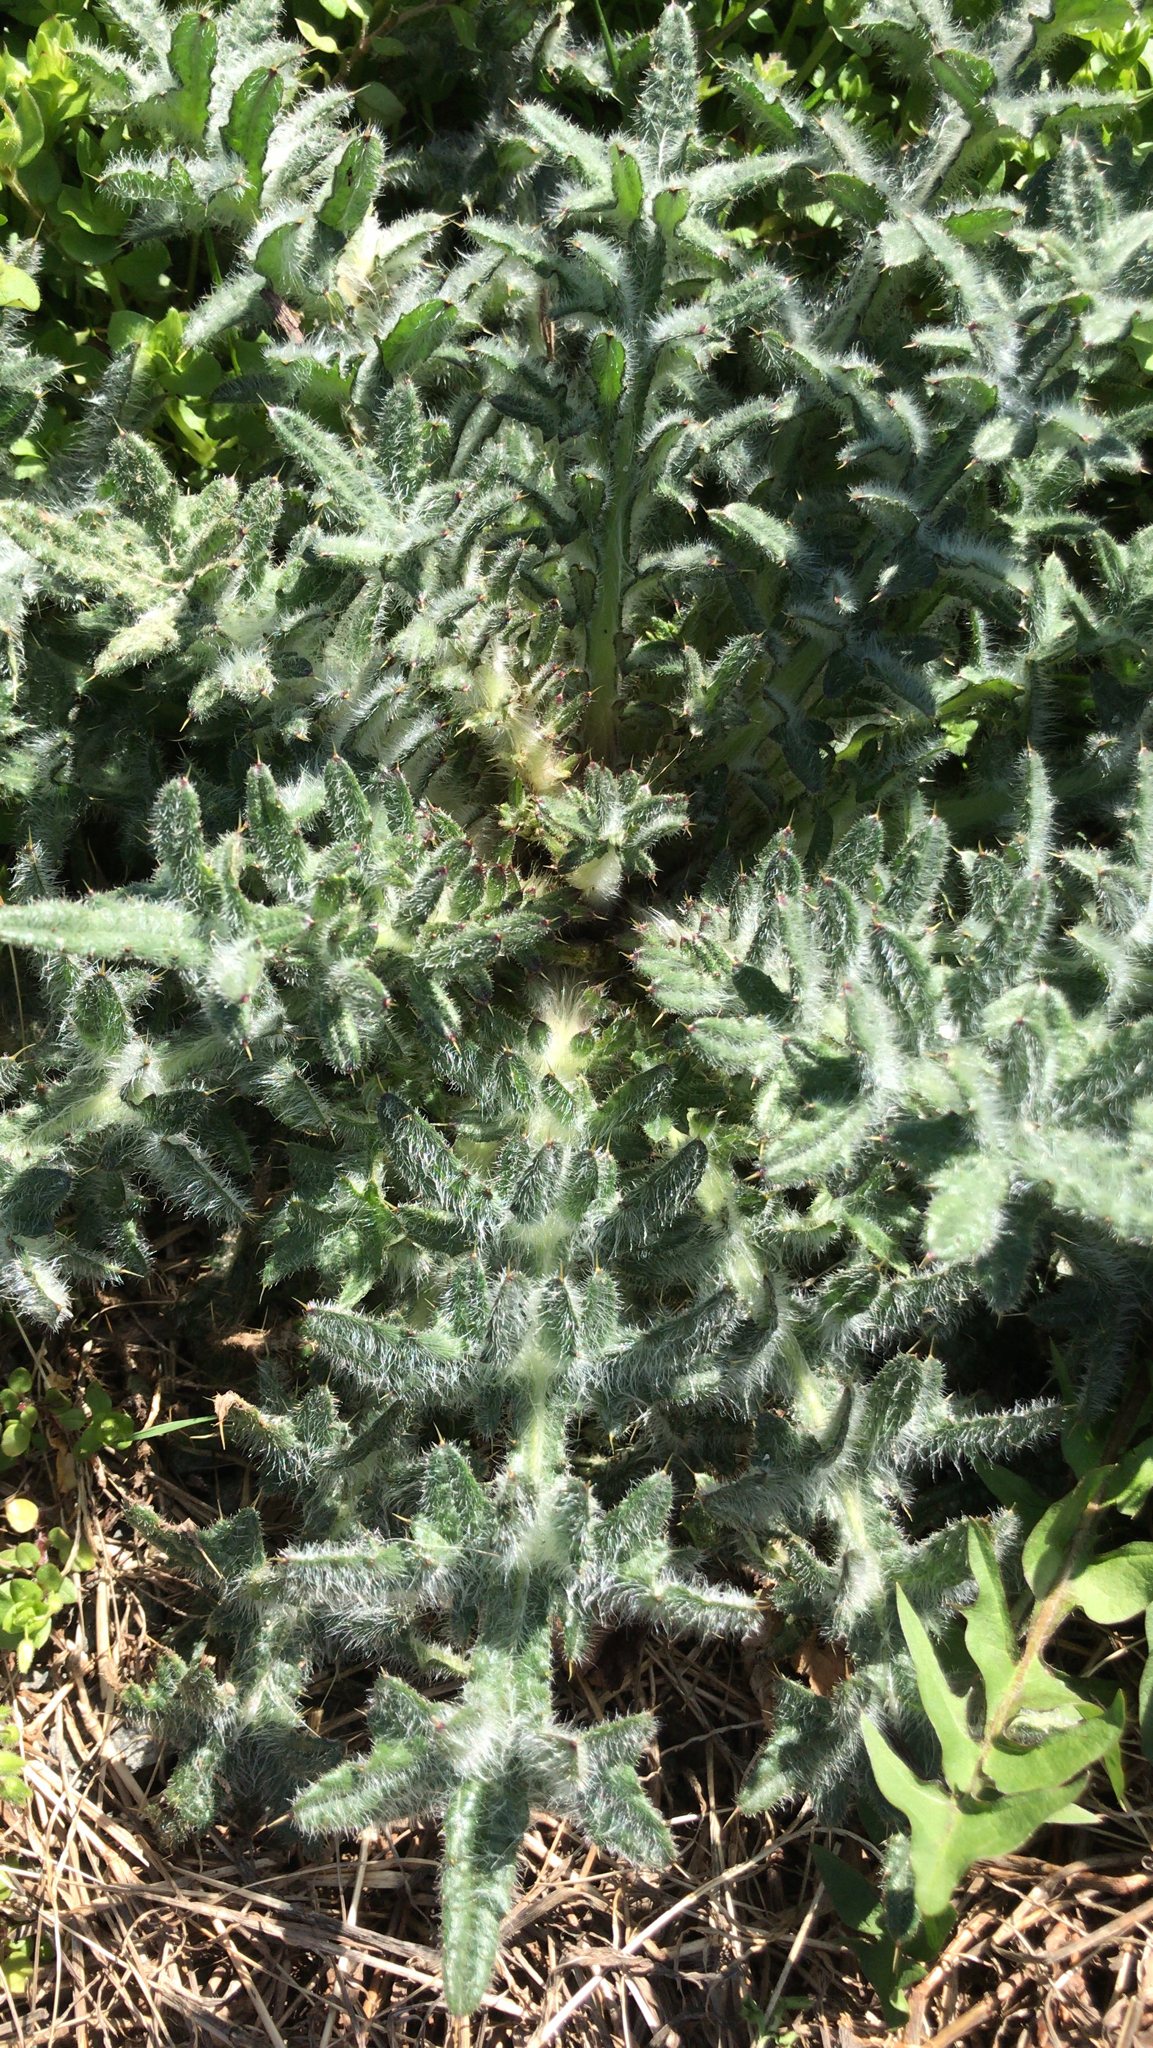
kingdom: Plantae
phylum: Tracheophyta
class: Magnoliopsida
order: Asterales
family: Asteraceae
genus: Cirsium
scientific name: Cirsium vulgare
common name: Bull thistle
